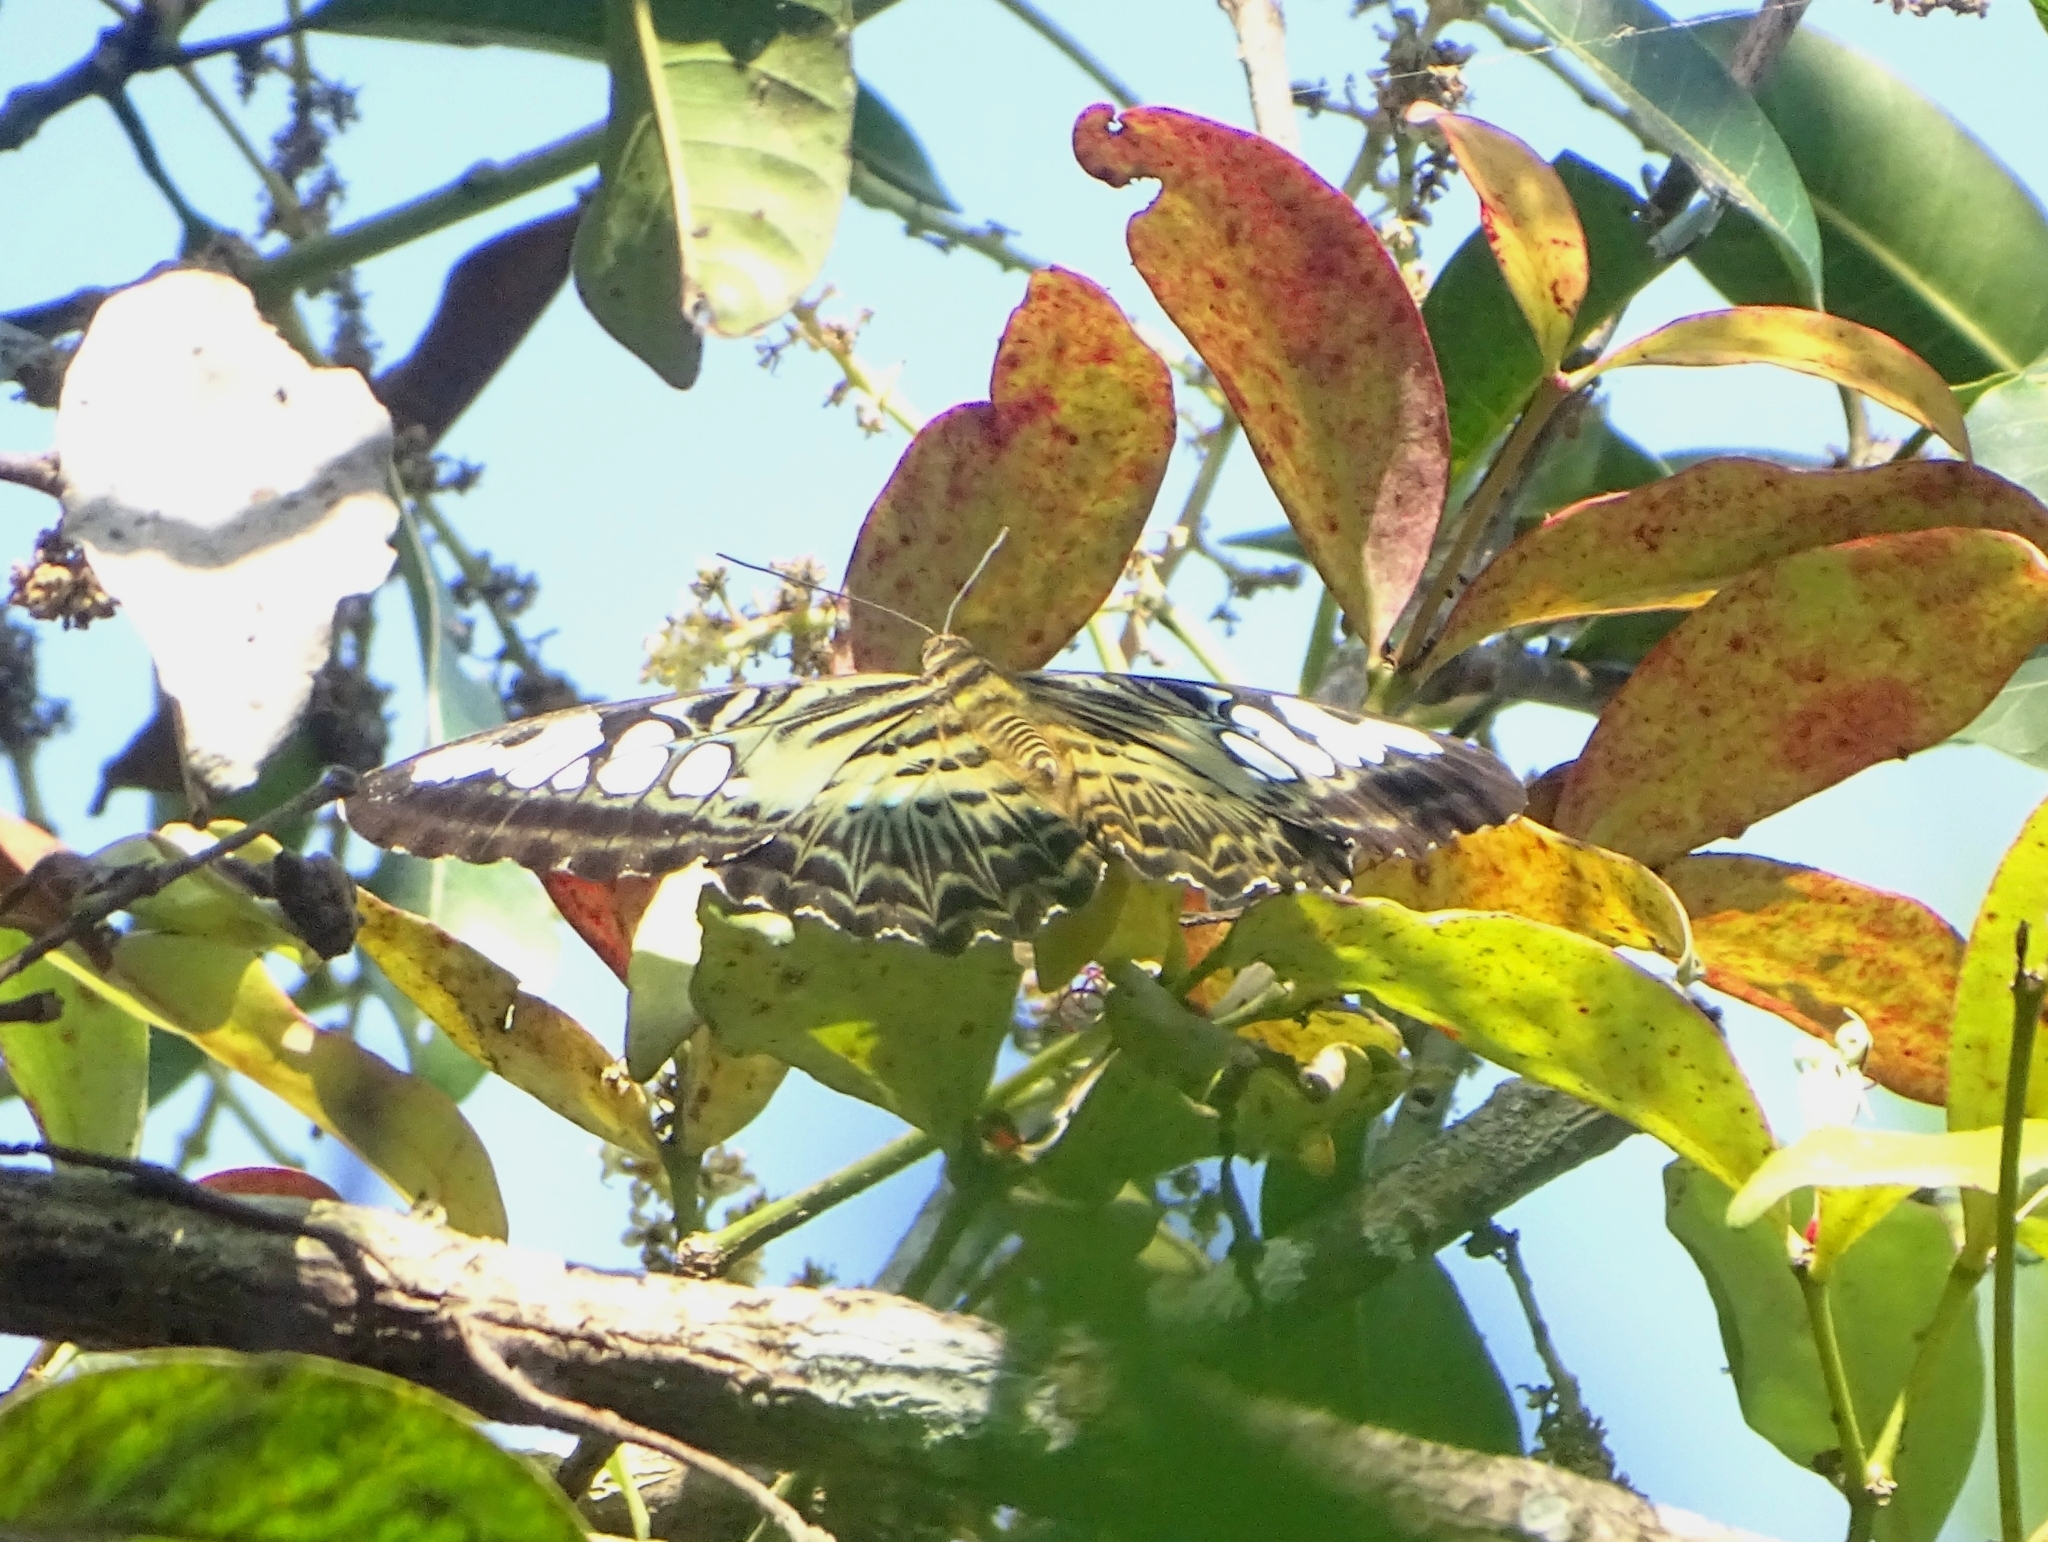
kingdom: Animalia
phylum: Arthropoda
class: Insecta
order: Lepidoptera
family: Nymphalidae
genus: Kallima
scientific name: Kallima sylvia
